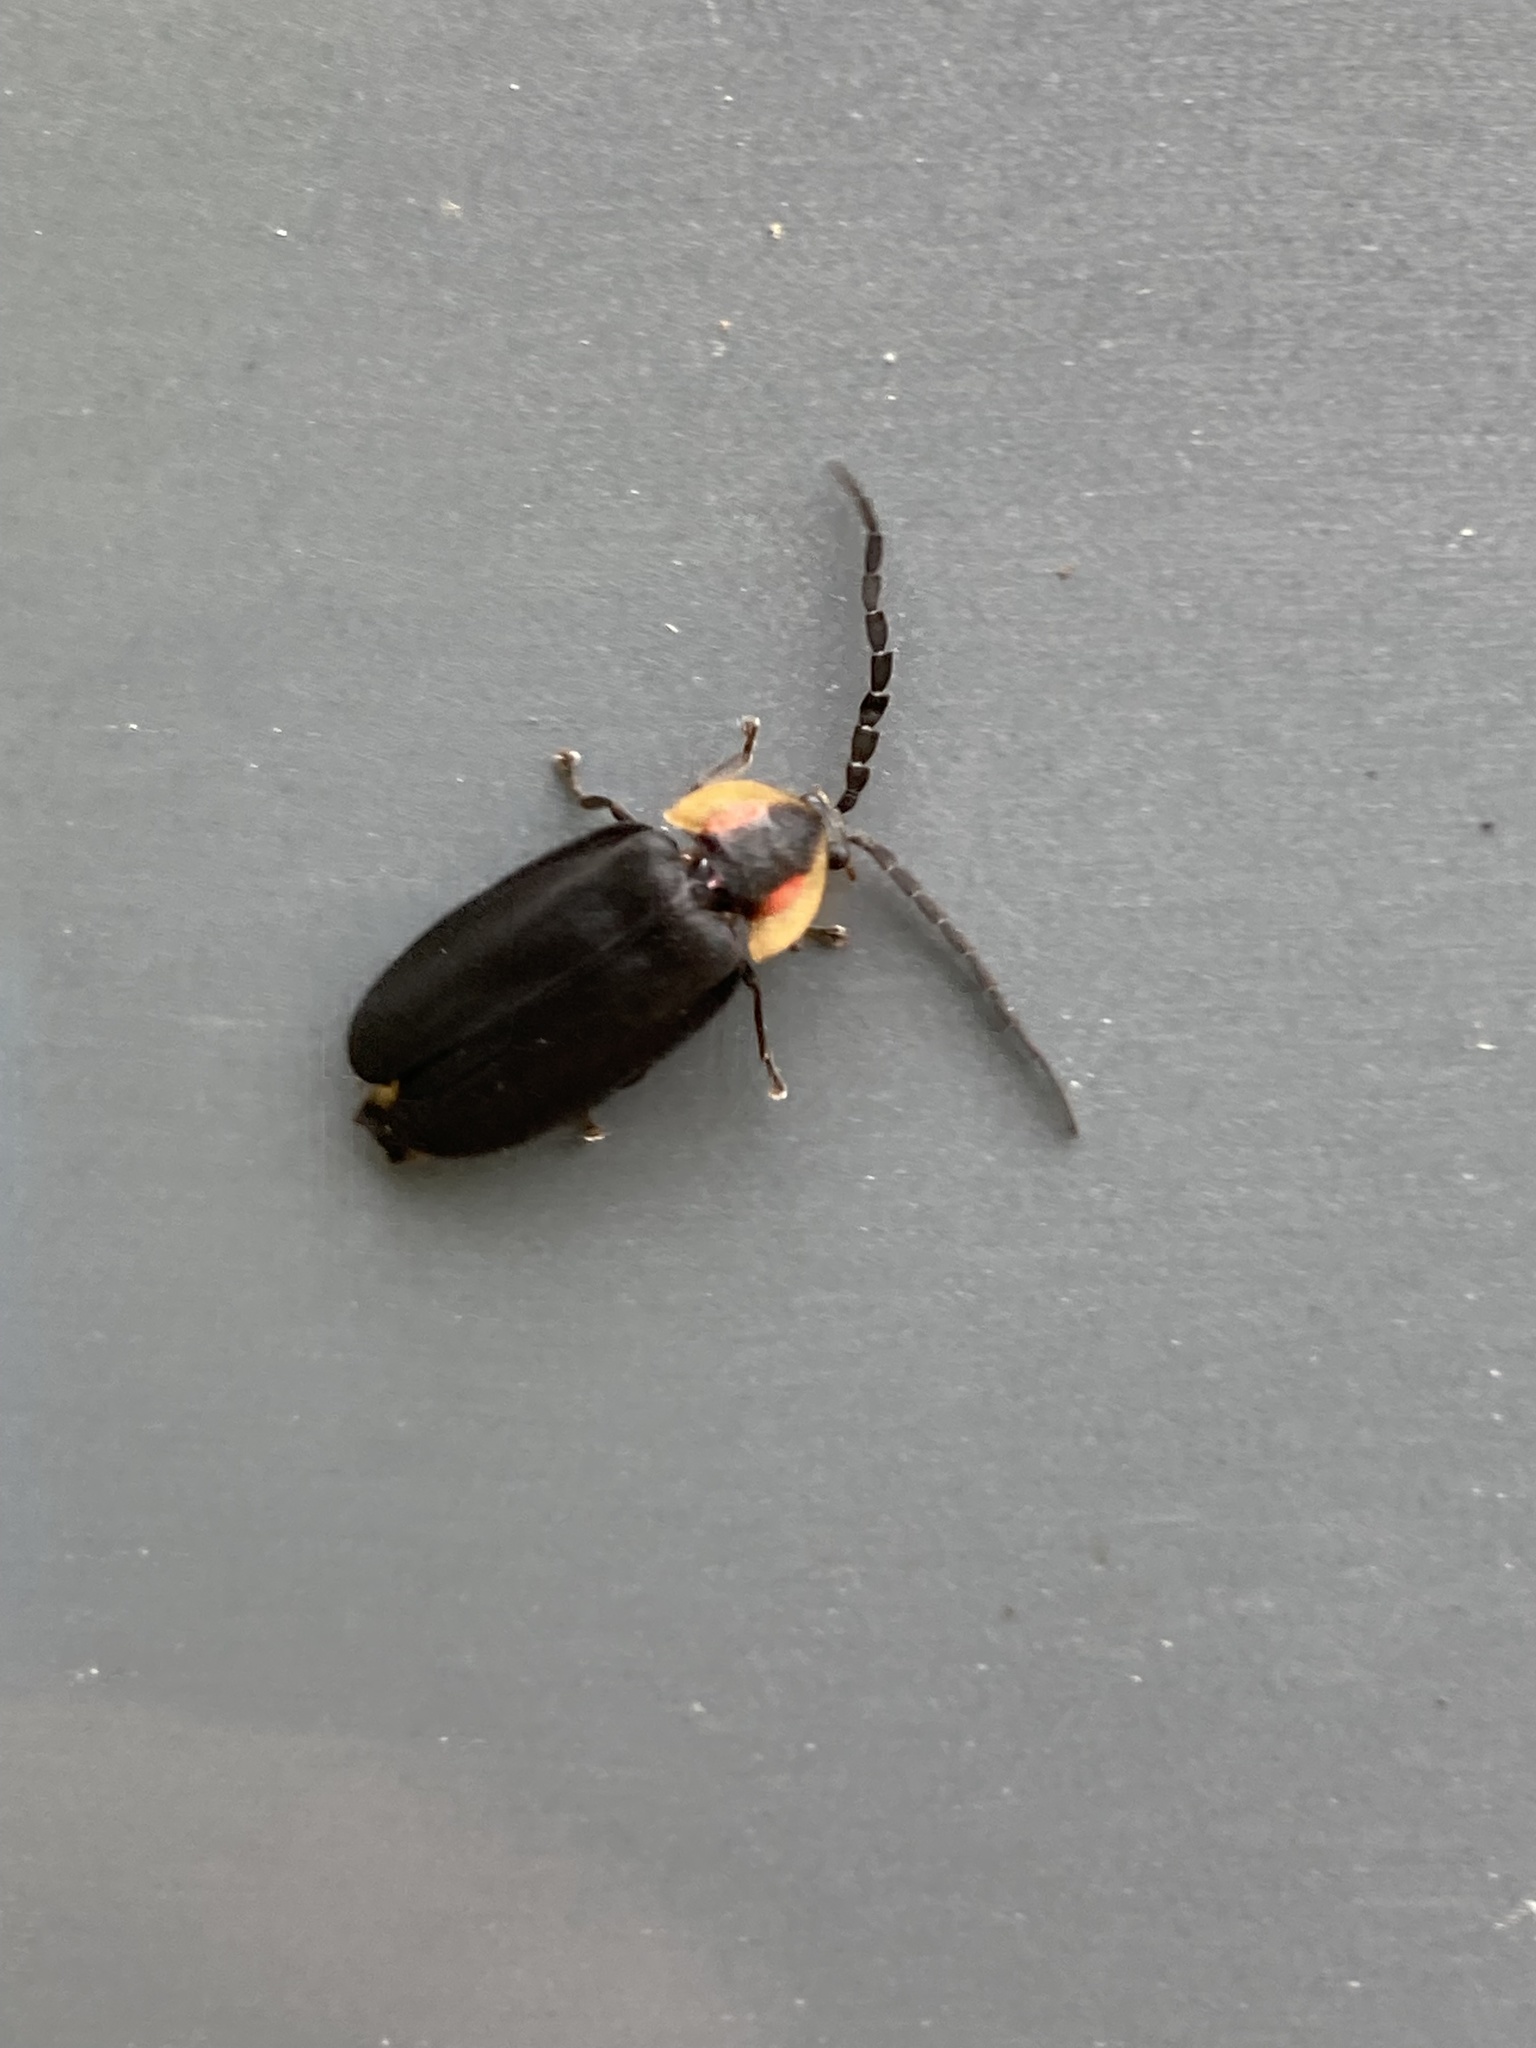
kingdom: Animalia
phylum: Arthropoda
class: Insecta
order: Coleoptera
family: Lampyridae
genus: Lucidota
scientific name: Lucidota atra
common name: Black firefly
